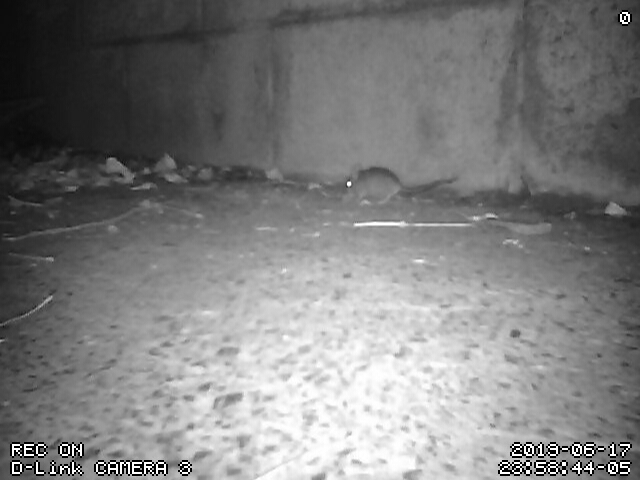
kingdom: Animalia
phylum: Chordata
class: Mammalia
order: Rodentia
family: Muridae
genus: Mus
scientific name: Mus musculus
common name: House mouse
